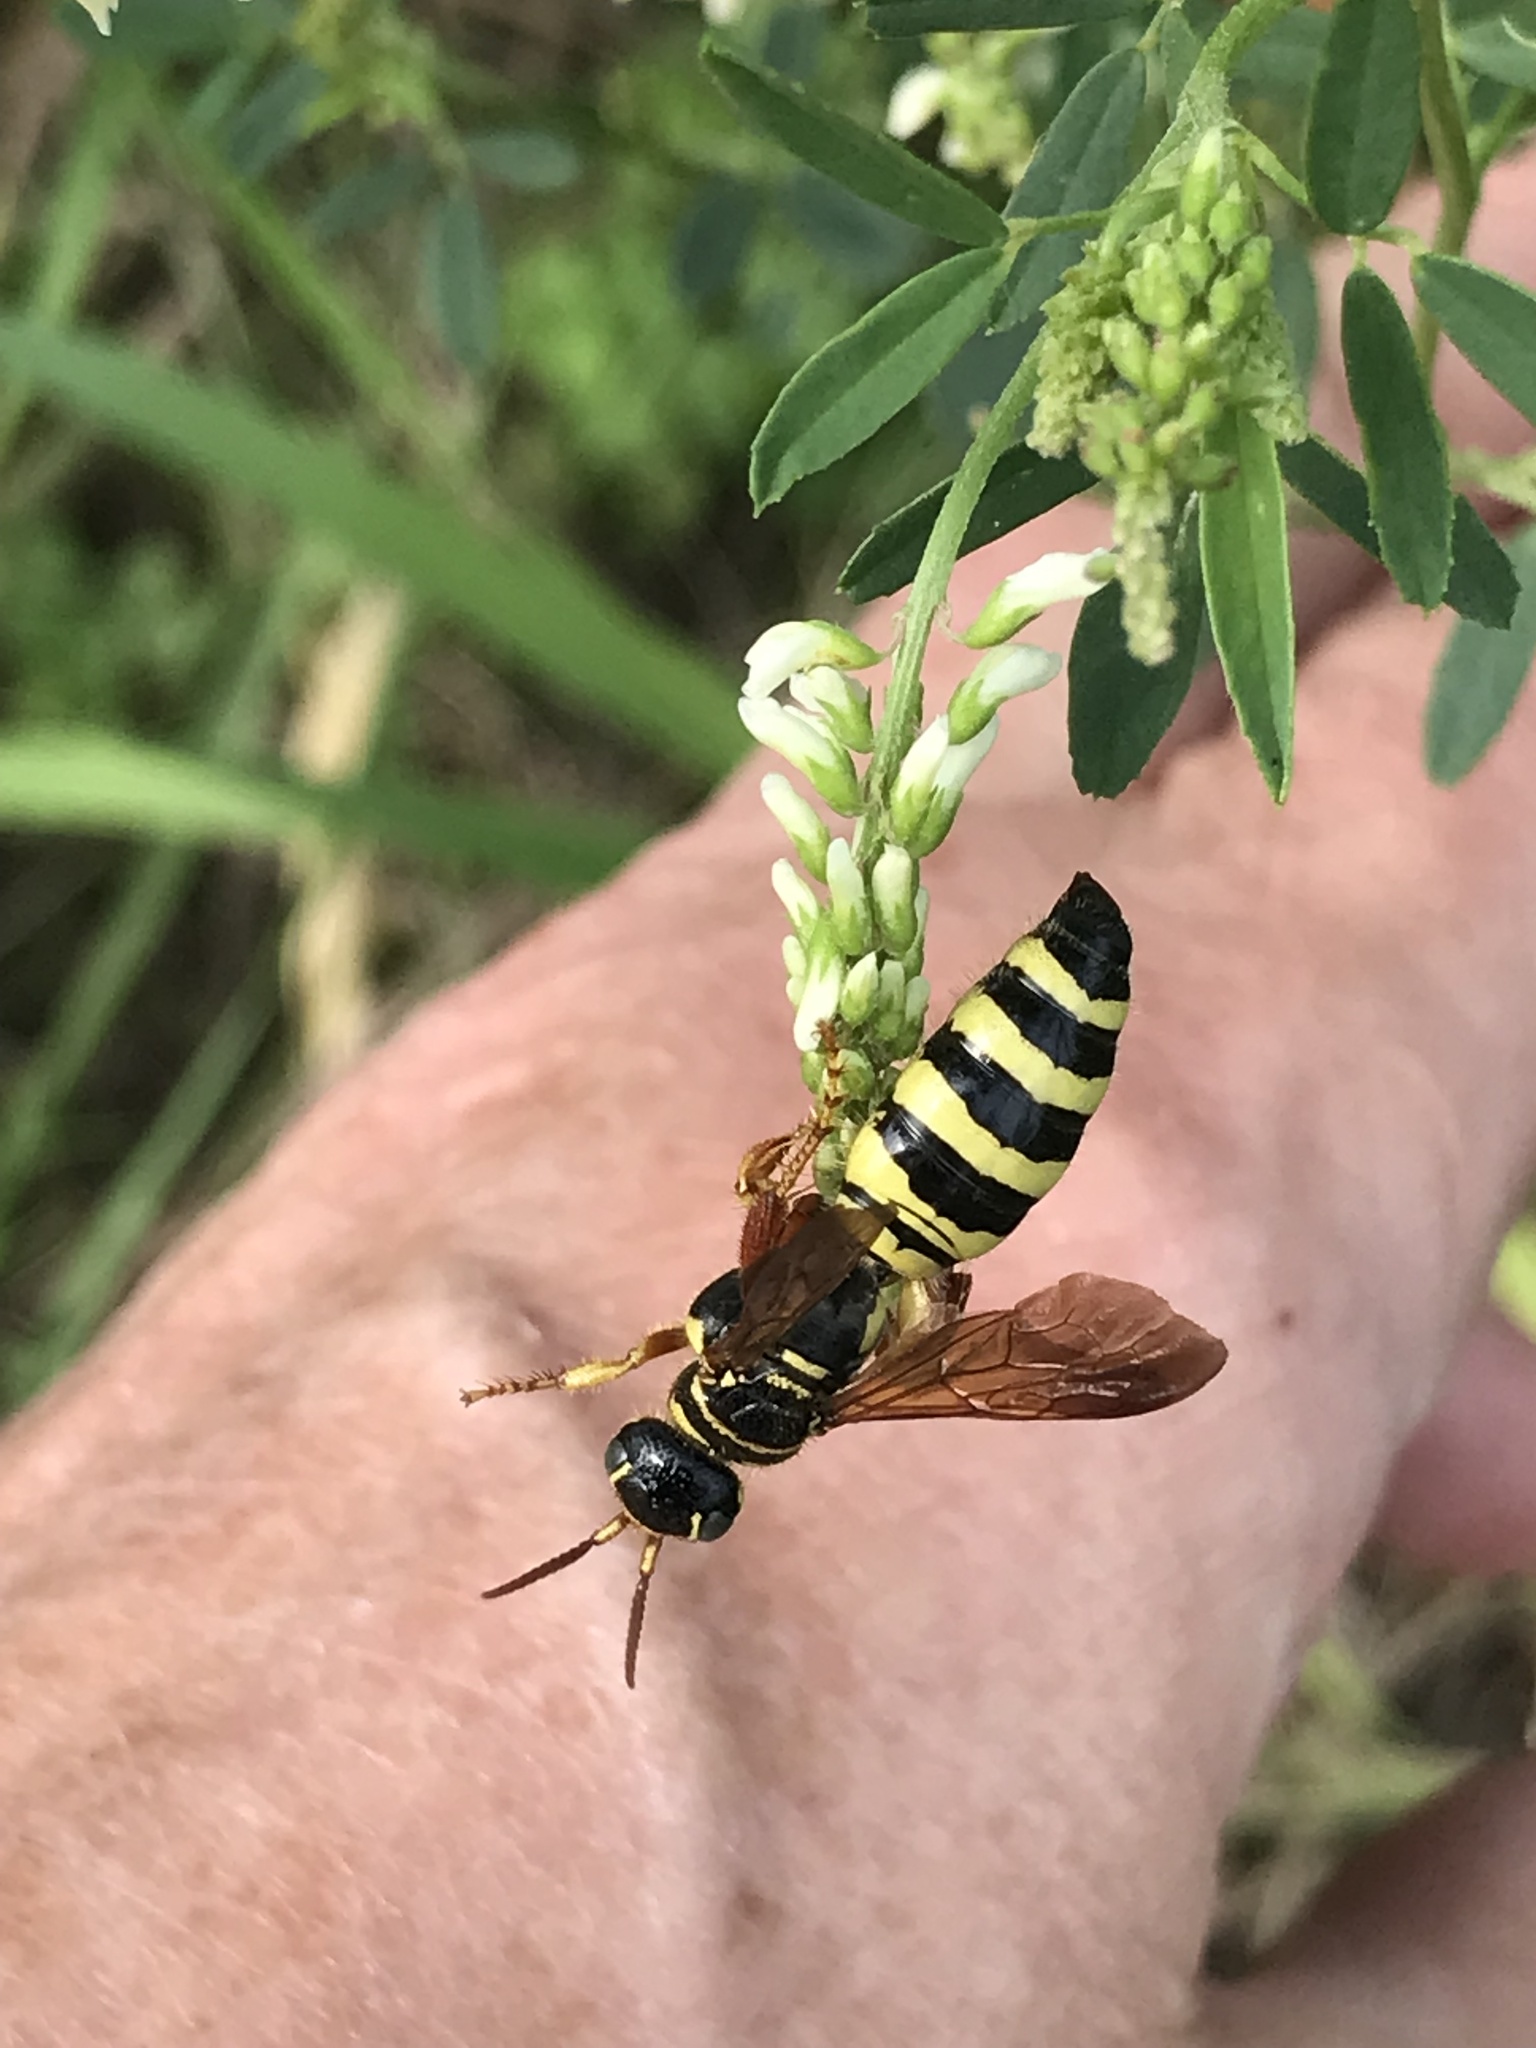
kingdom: Animalia
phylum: Arthropoda
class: Insecta
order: Hymenoptera
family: Tiphiidae
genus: Myzinum
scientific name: Myzinum quinquecinctum
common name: Five-banded thynnid wasp
